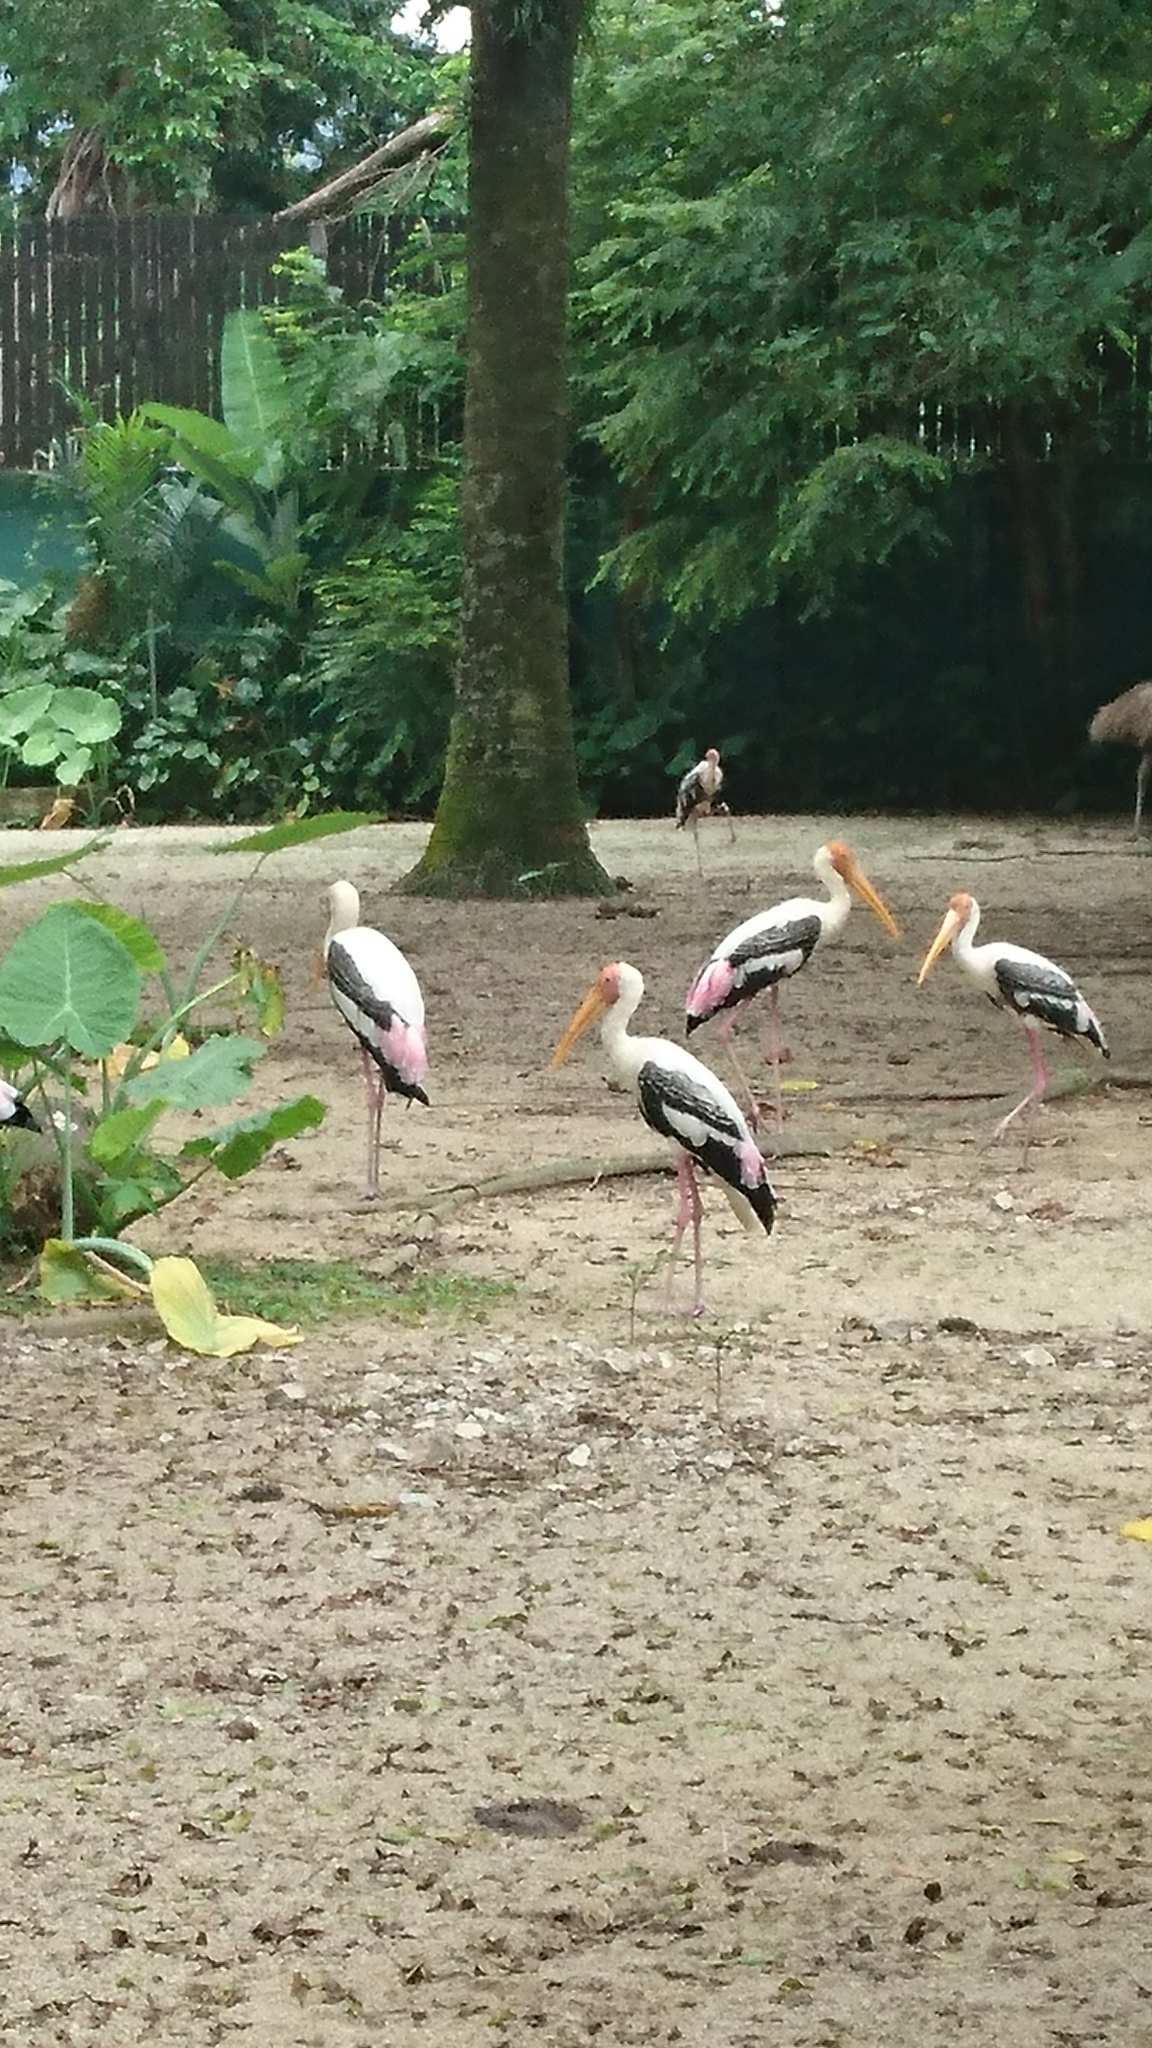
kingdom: Animalia
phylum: Chordata
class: Aves
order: Ciconiiformes
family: Ciconiidae
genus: Mycteria
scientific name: Mycteria leucocephala
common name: Painted stork
